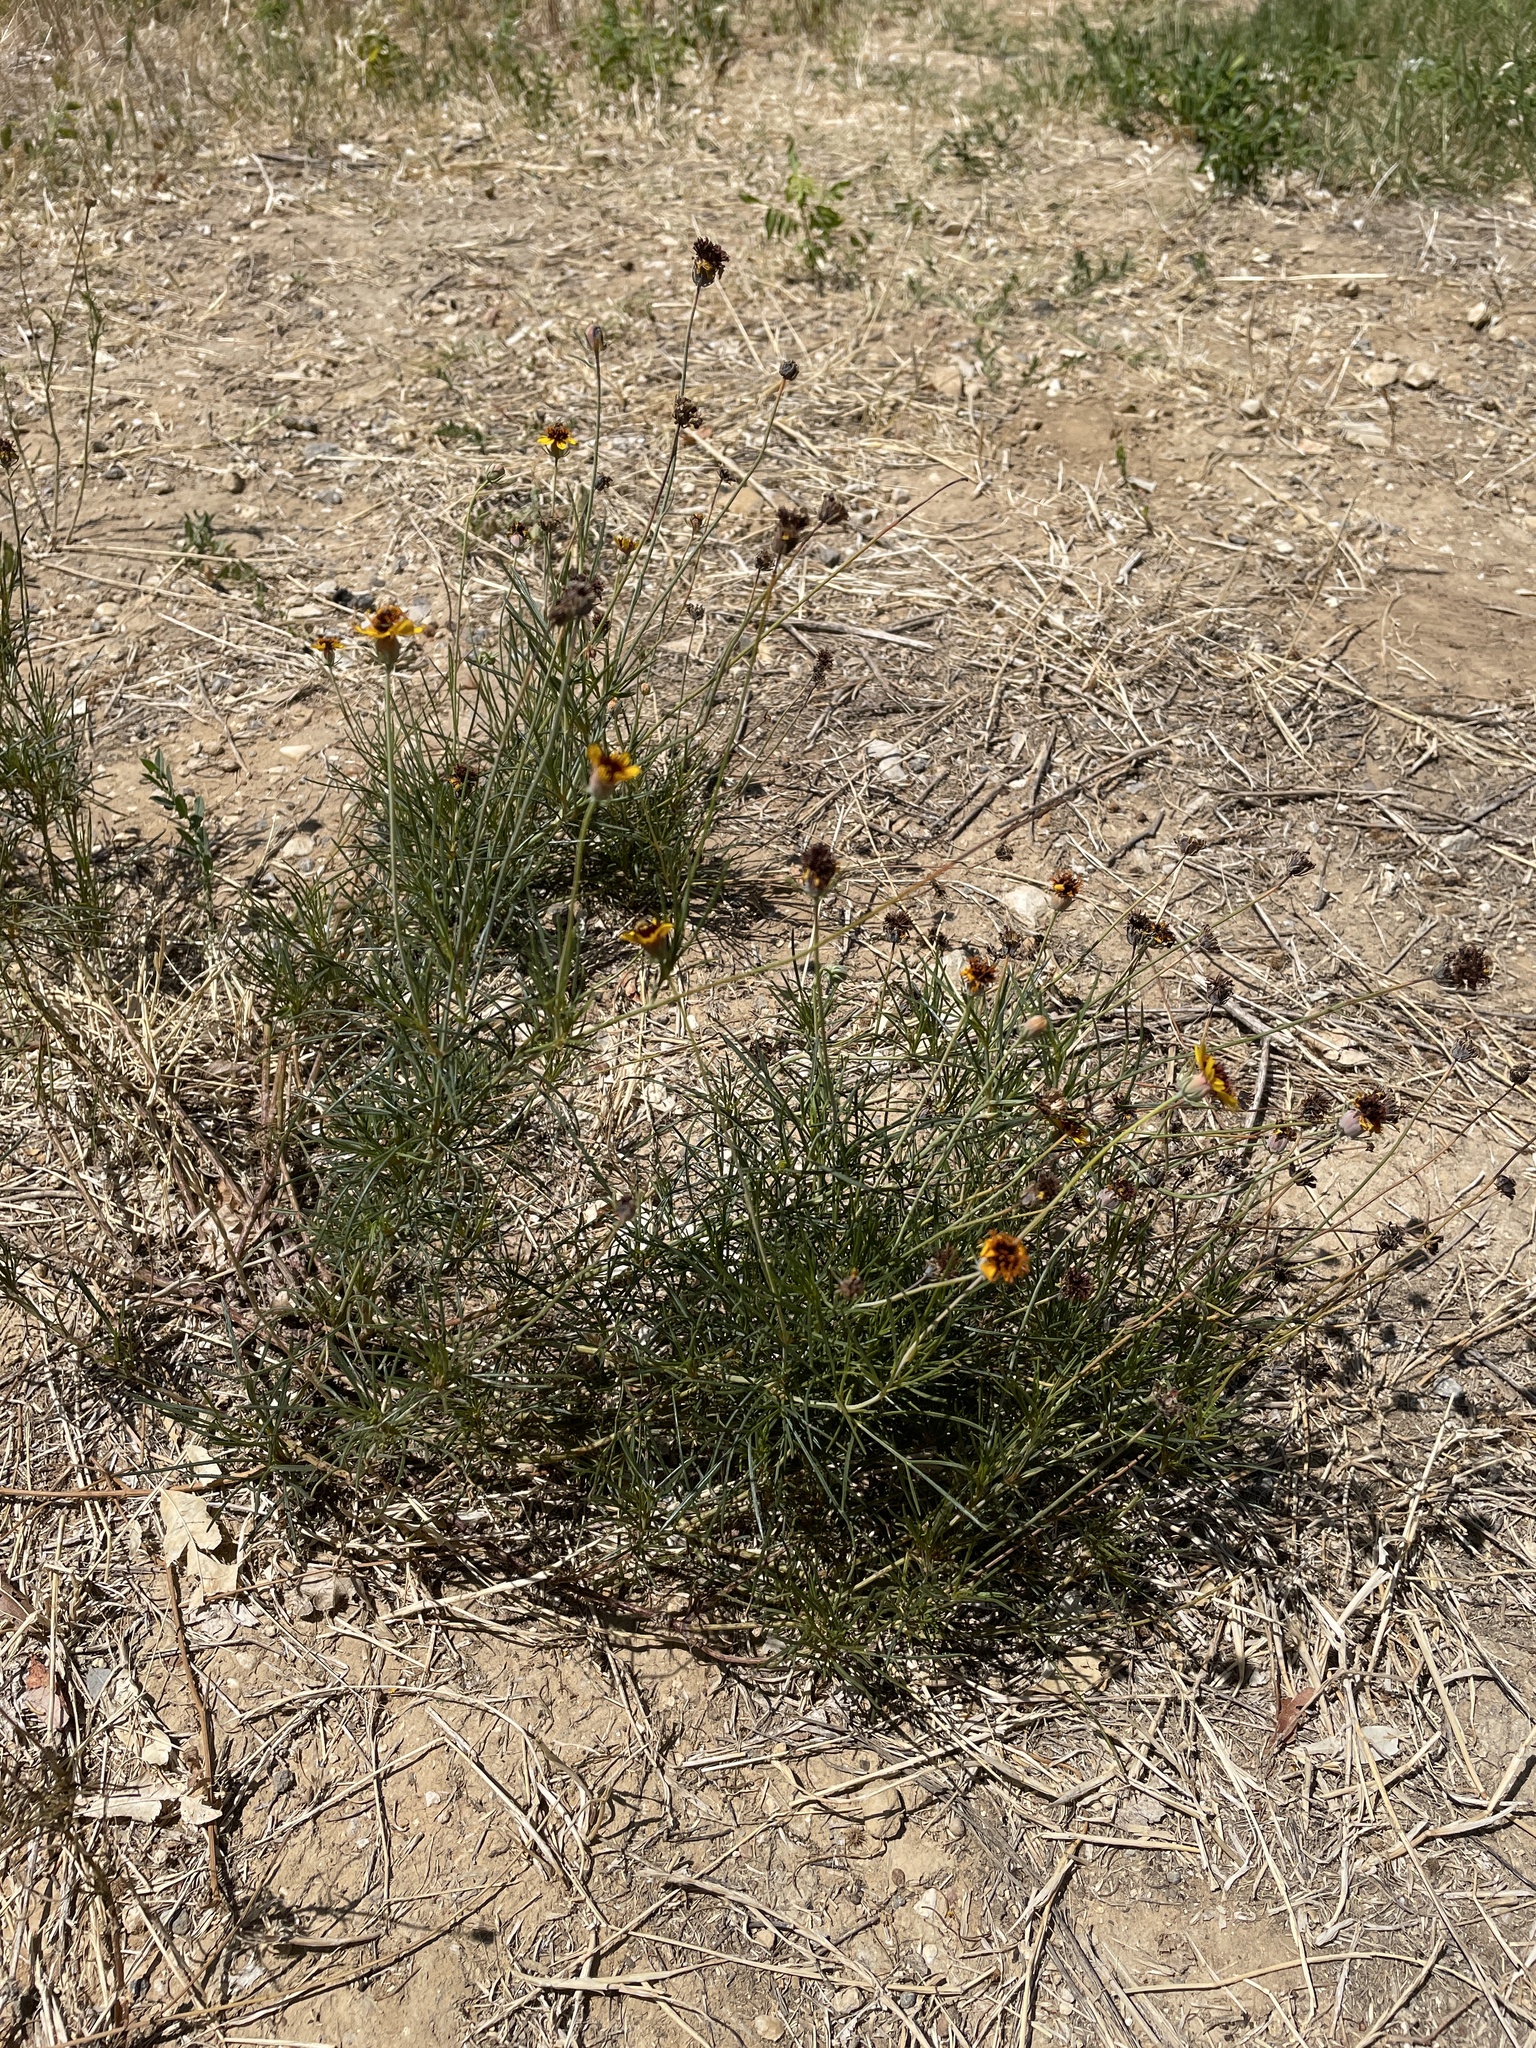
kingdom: Plantae
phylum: Tracheophyta
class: Magnoliopsida
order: Asterales
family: Asteraceae
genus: Thelesperma
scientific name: Thelesperma filifolium
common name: Stiff greenthread
